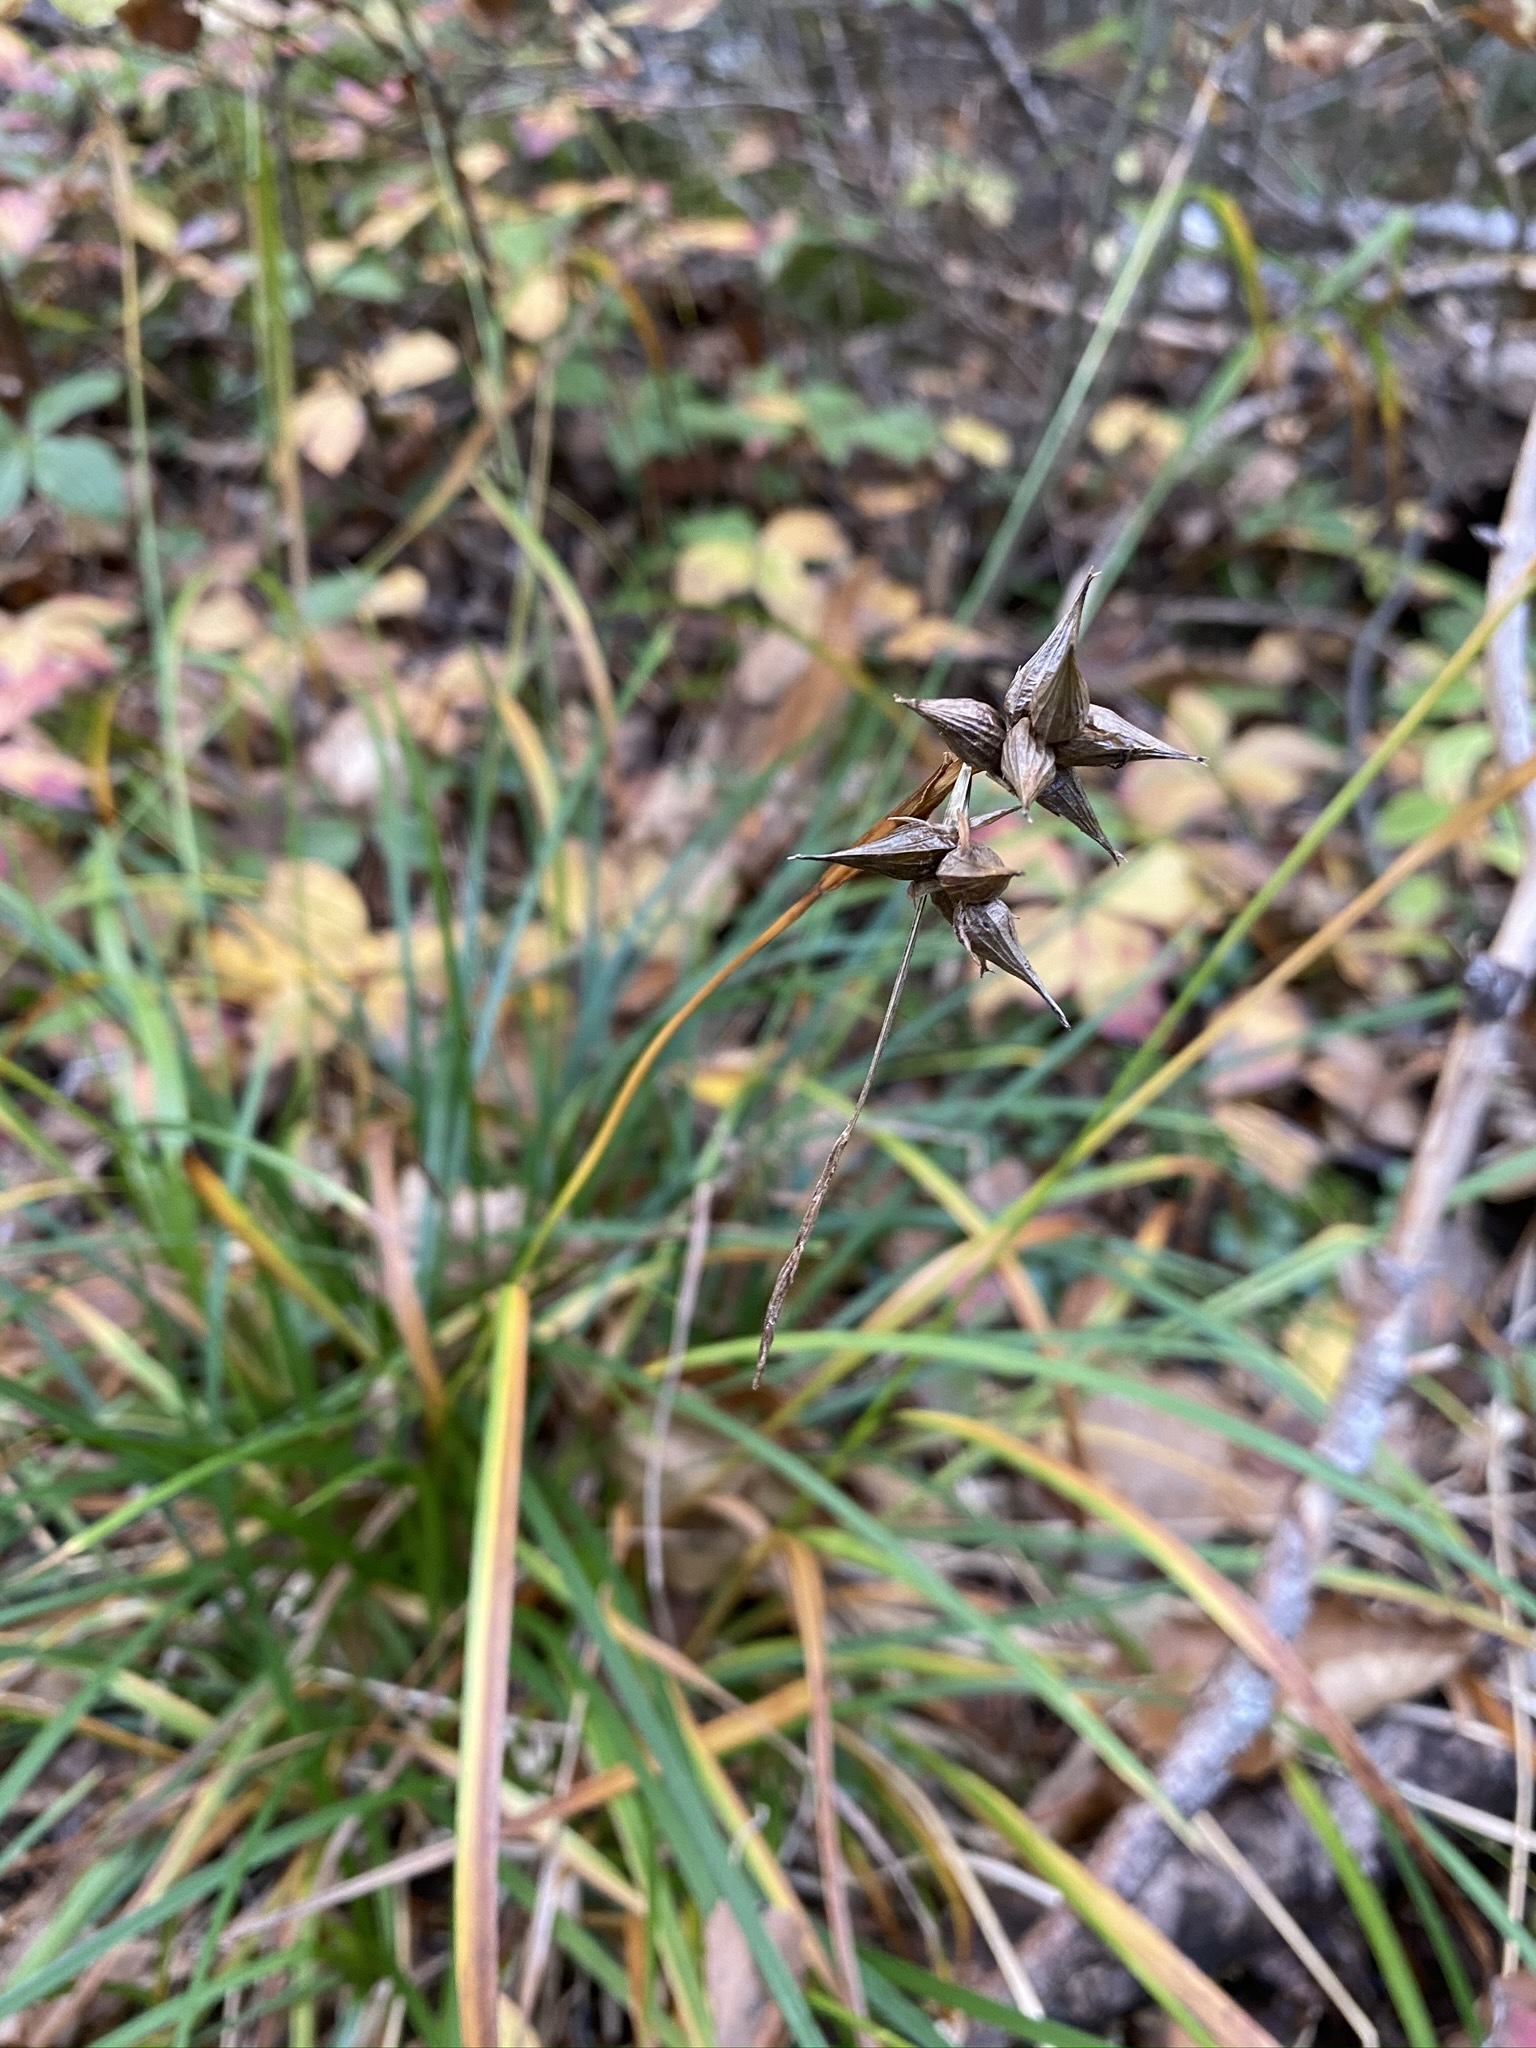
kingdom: Plantae
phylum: Tracheophyta
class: Liliopsida
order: Poales
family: Cyperaceae
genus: Carex
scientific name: Carex intumescens
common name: Greater bladder sedge
